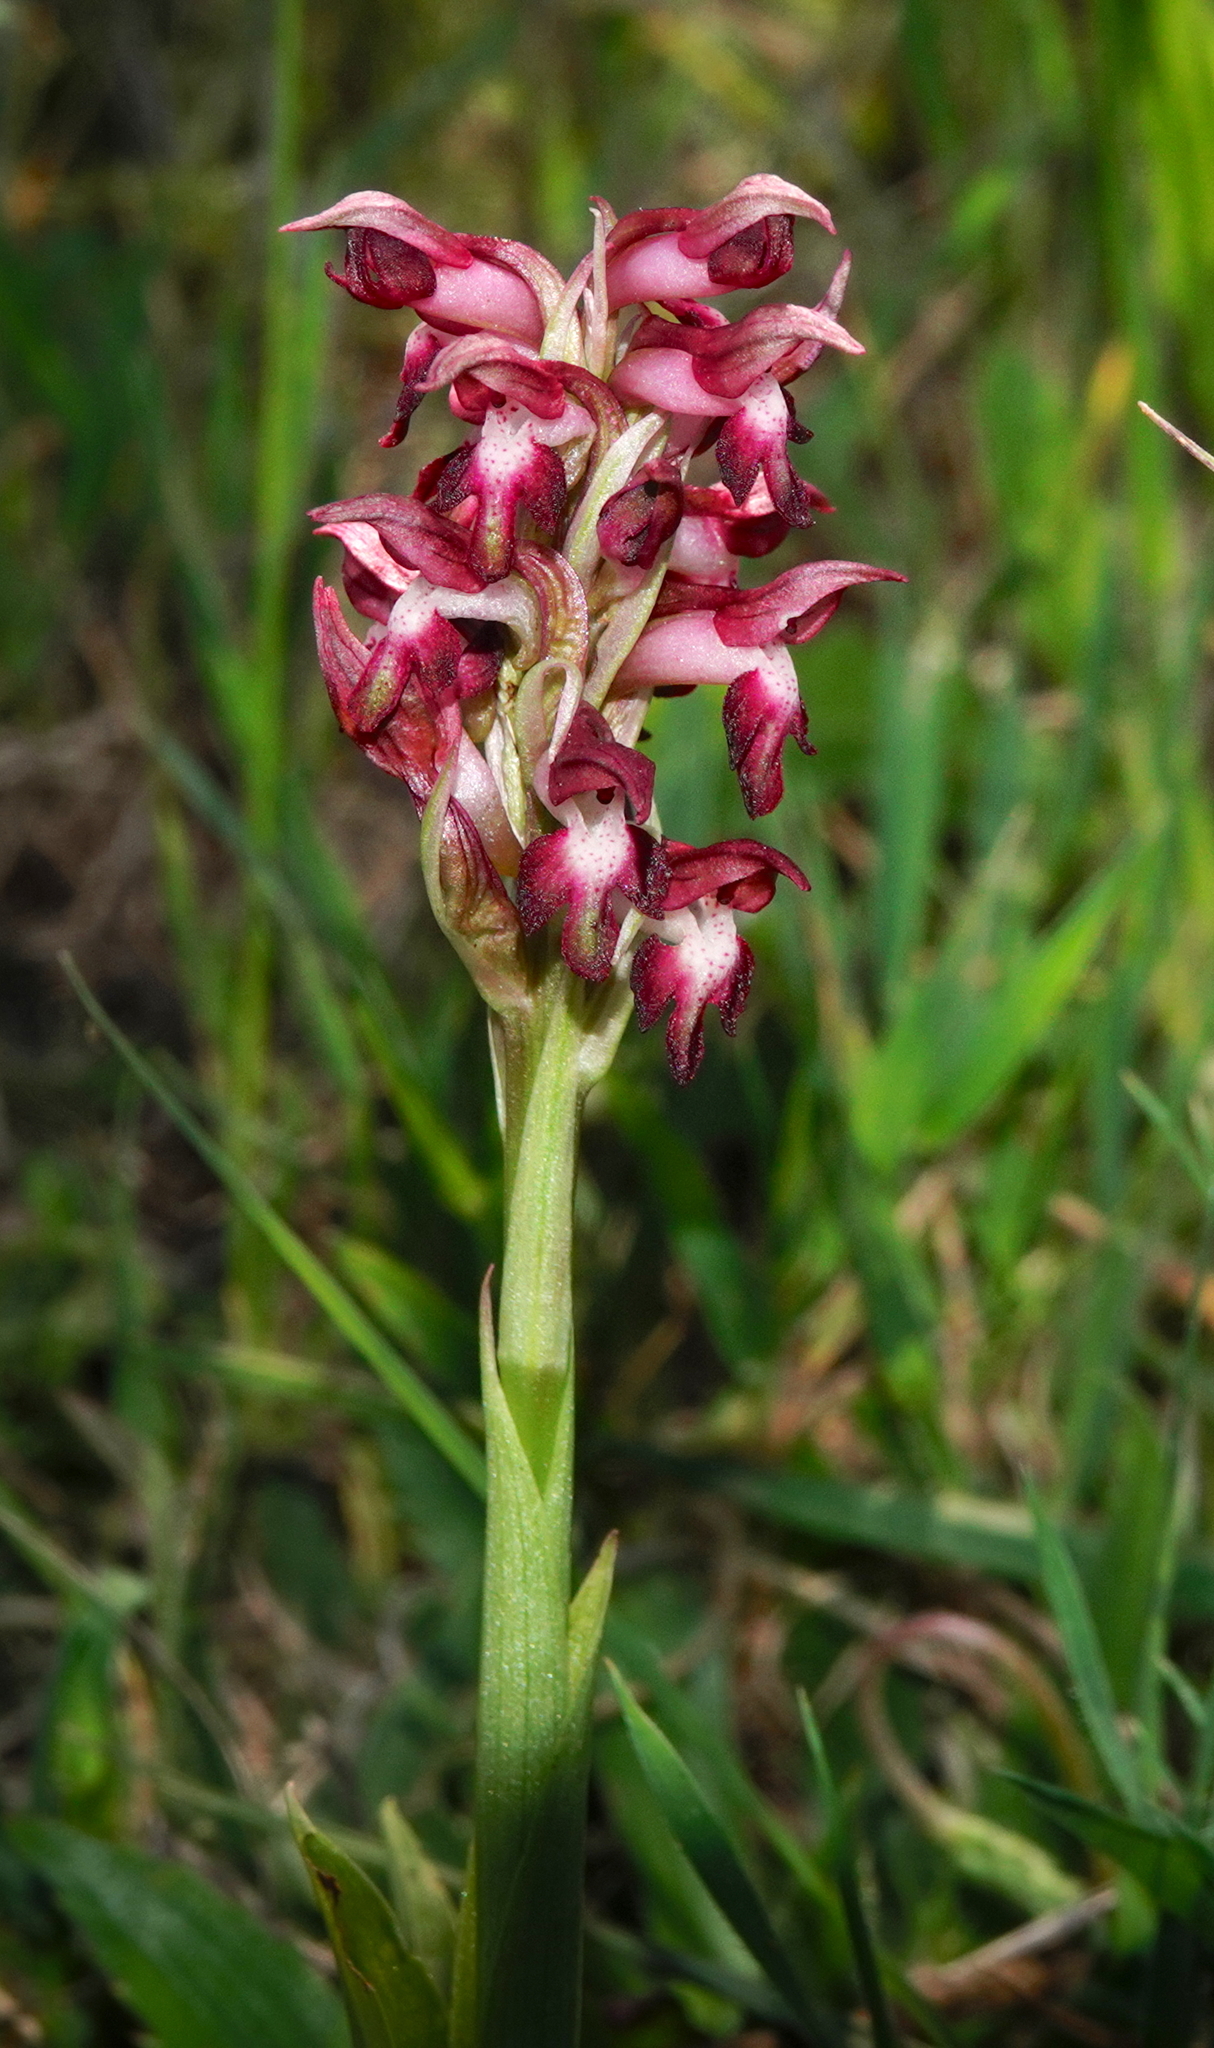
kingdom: Plantae
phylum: Tracheophyta
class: Liliopsida
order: Asparagales
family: Orchidaceae
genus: Anacamptis
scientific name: Anacamptis coriophora
